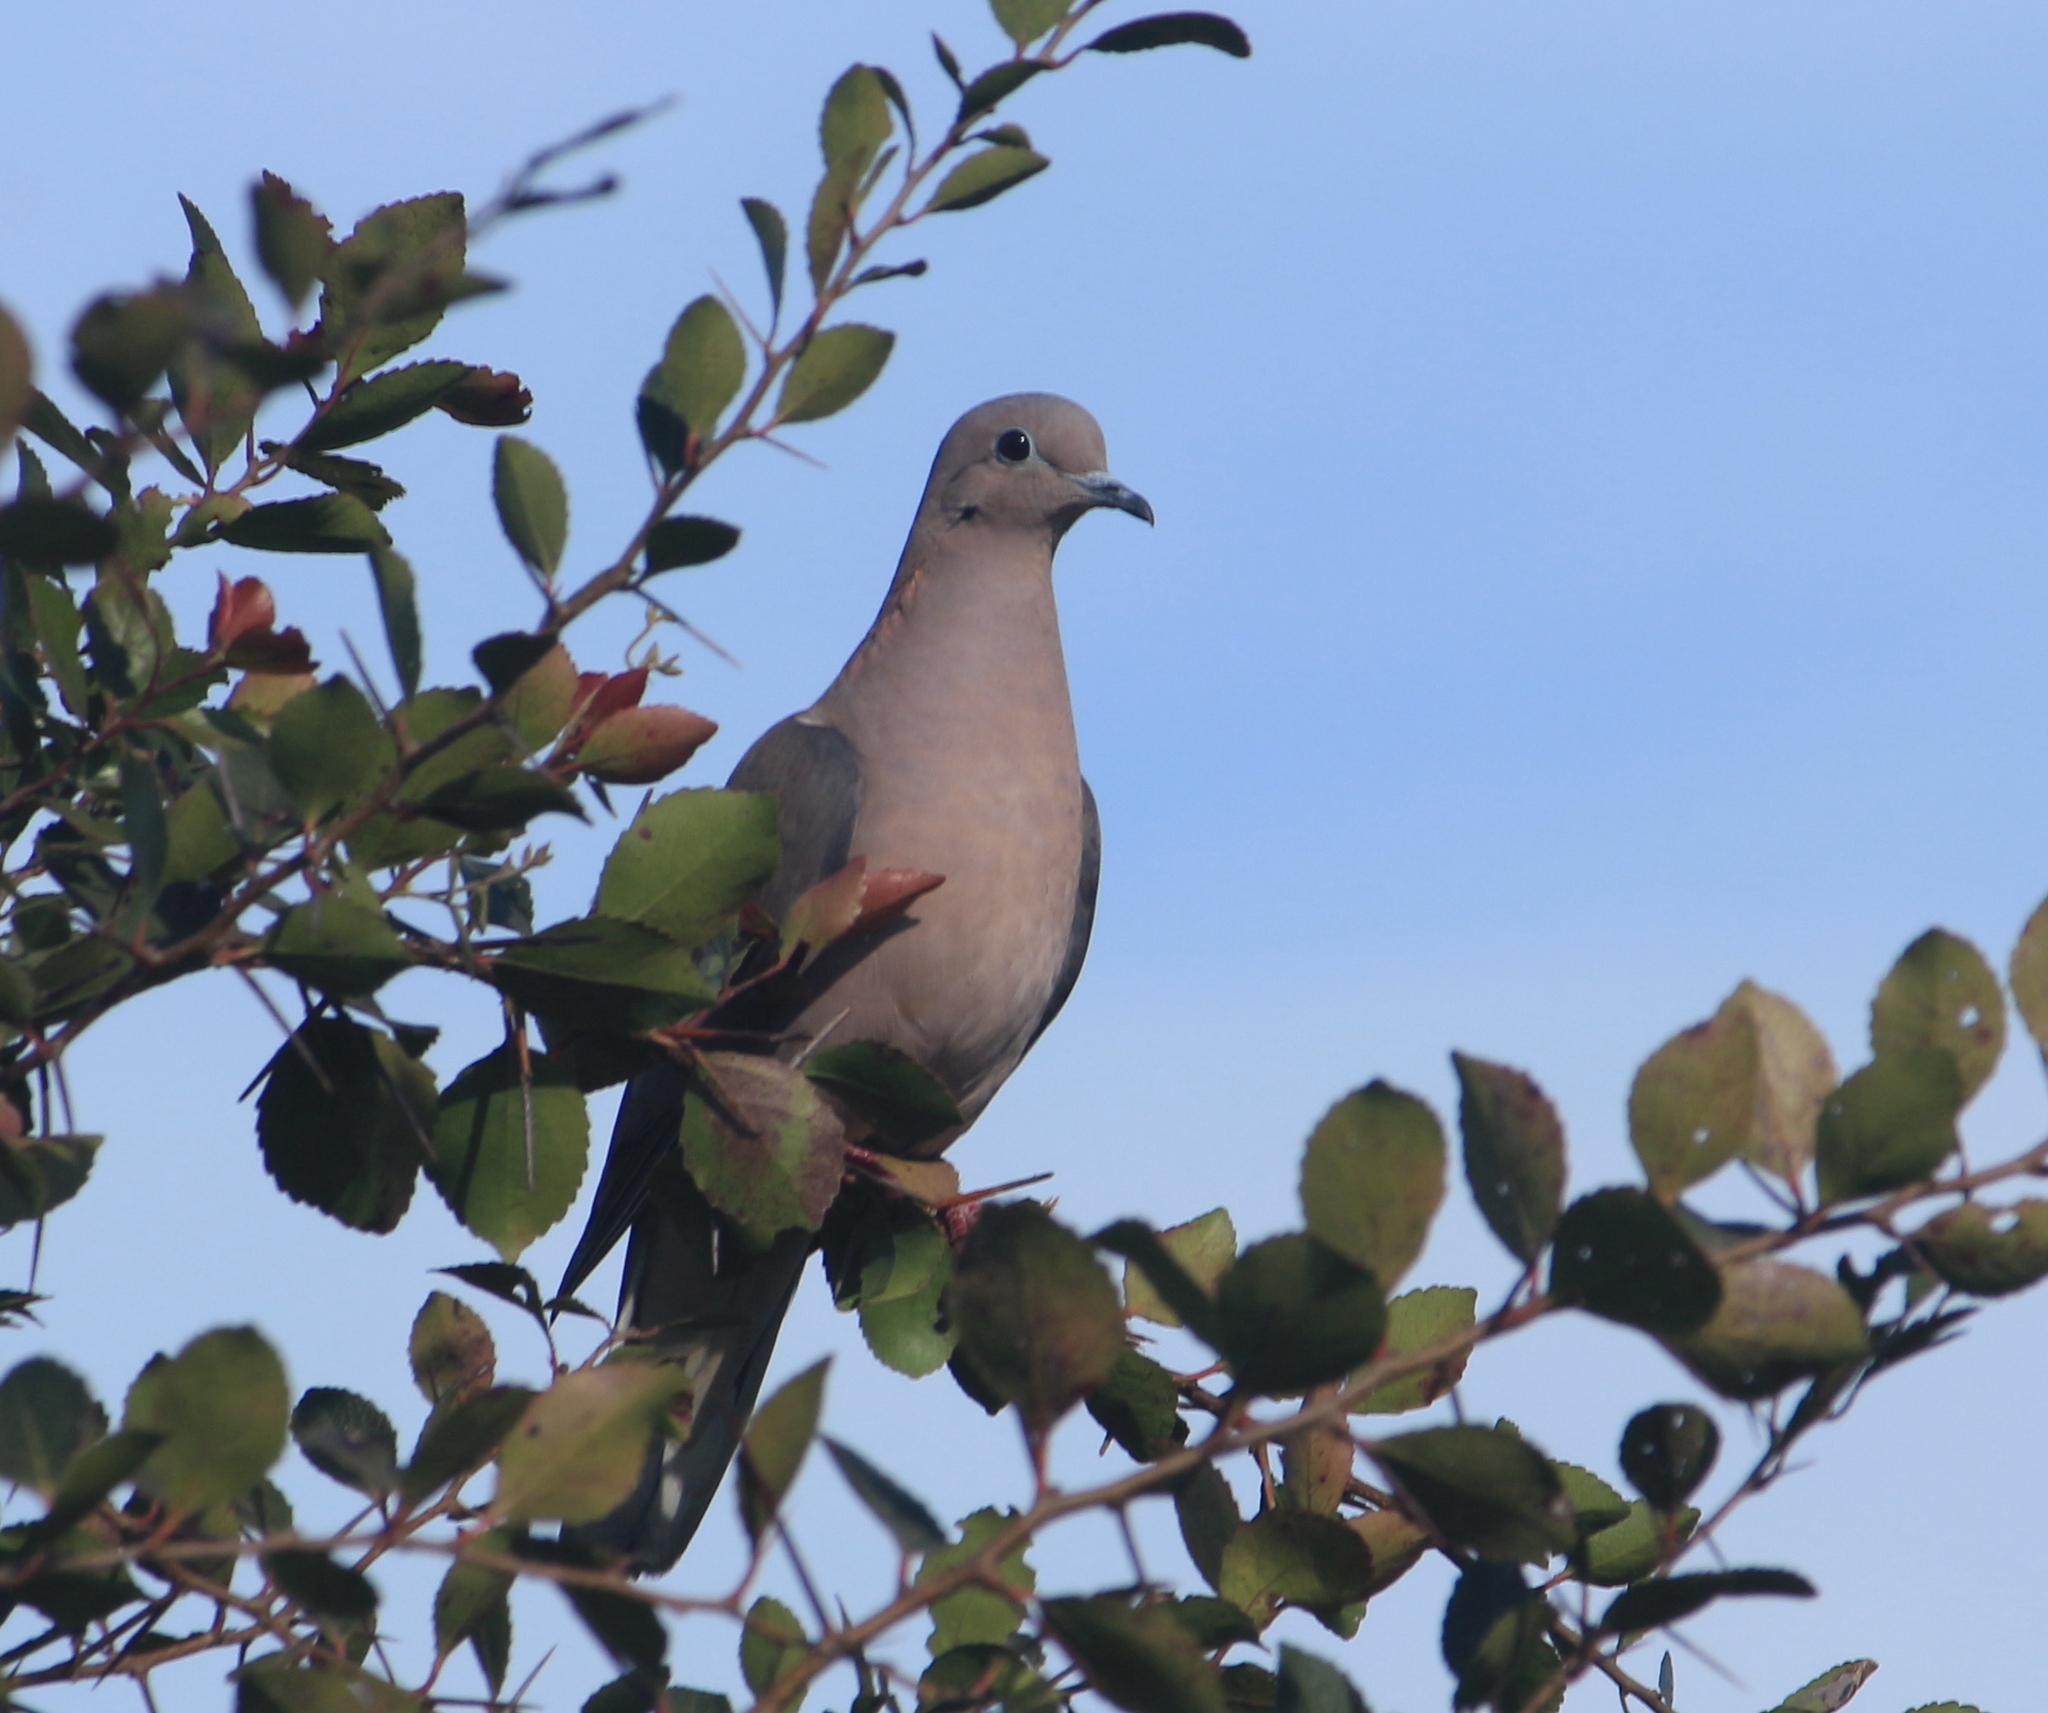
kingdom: Animalia
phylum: Chordata
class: Aves
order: Columbiformes
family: Columbidae
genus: Zenaida
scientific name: Zenaida auriculata
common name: Eared dove
